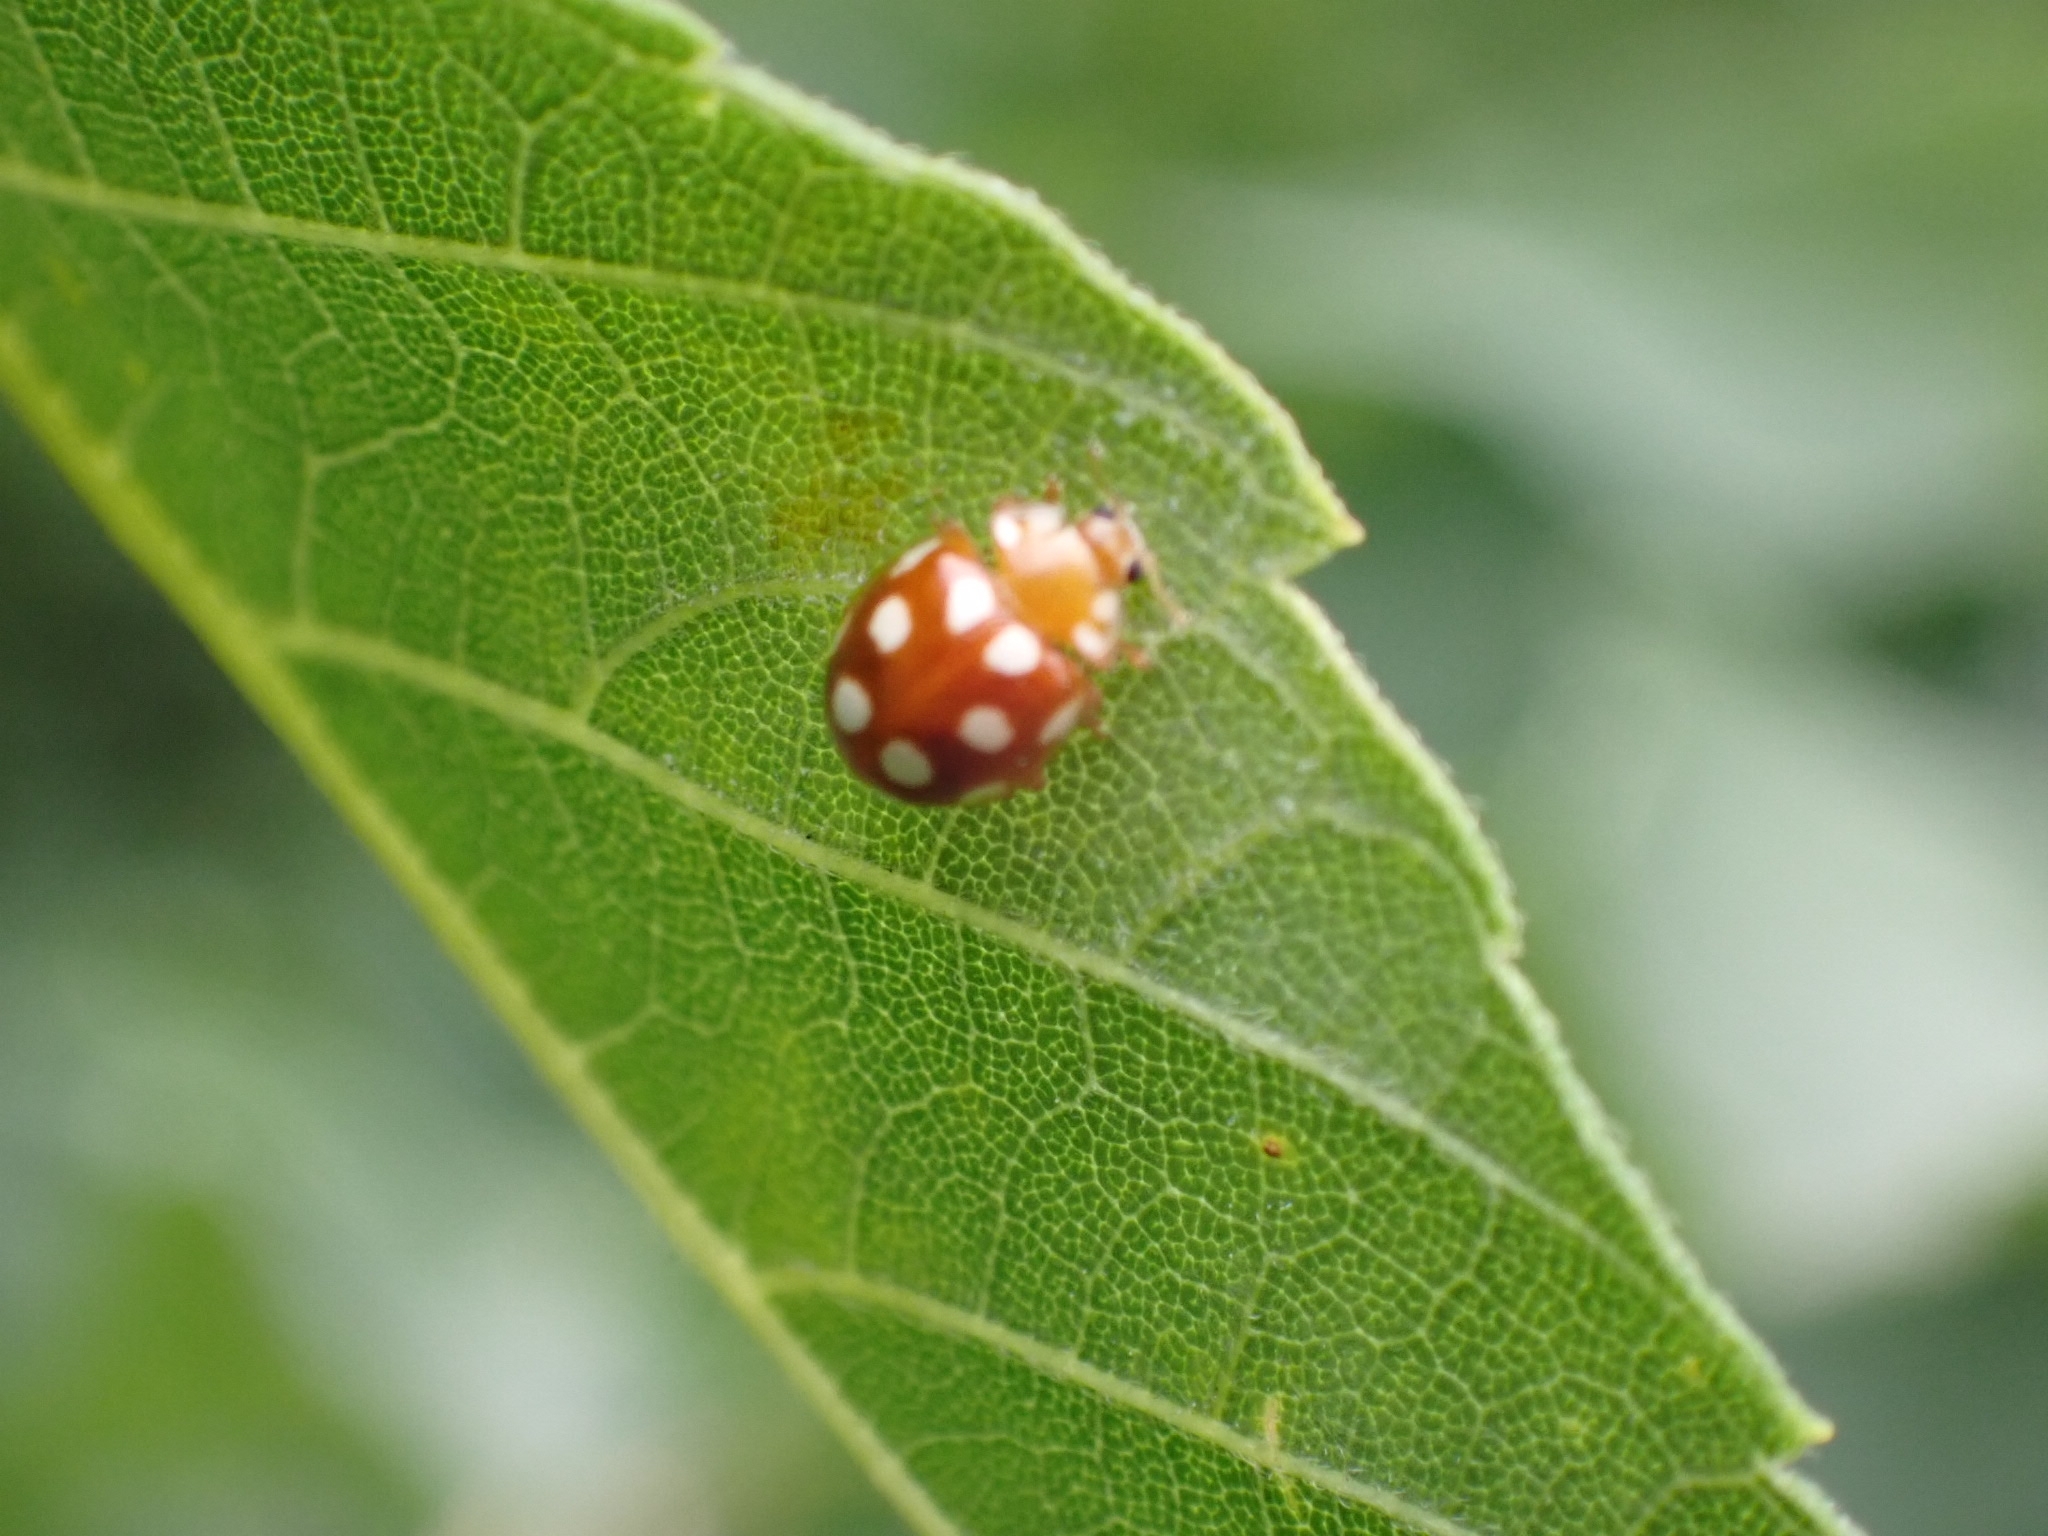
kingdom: Animalia
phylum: Arthropoda
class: Insecta
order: Coleoptera
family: Coccinellidae
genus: Vibidia
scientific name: Vibidia duodecimguttata
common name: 12-spot ladybird
